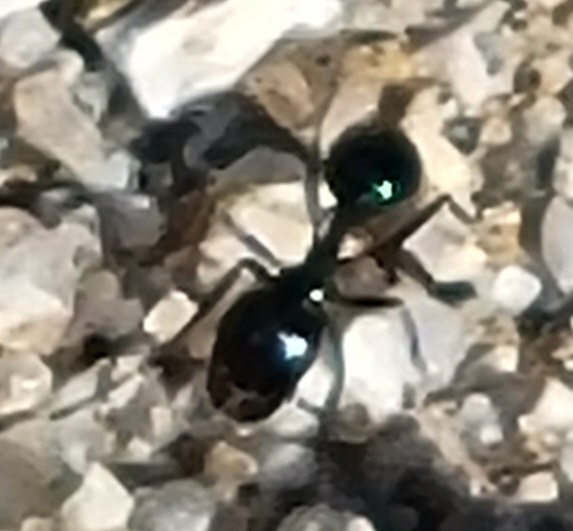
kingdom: Animalia
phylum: Arthropoda
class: Insecta
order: Hymenoptera
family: Formicidae
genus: Messor
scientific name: Messor pergandei
